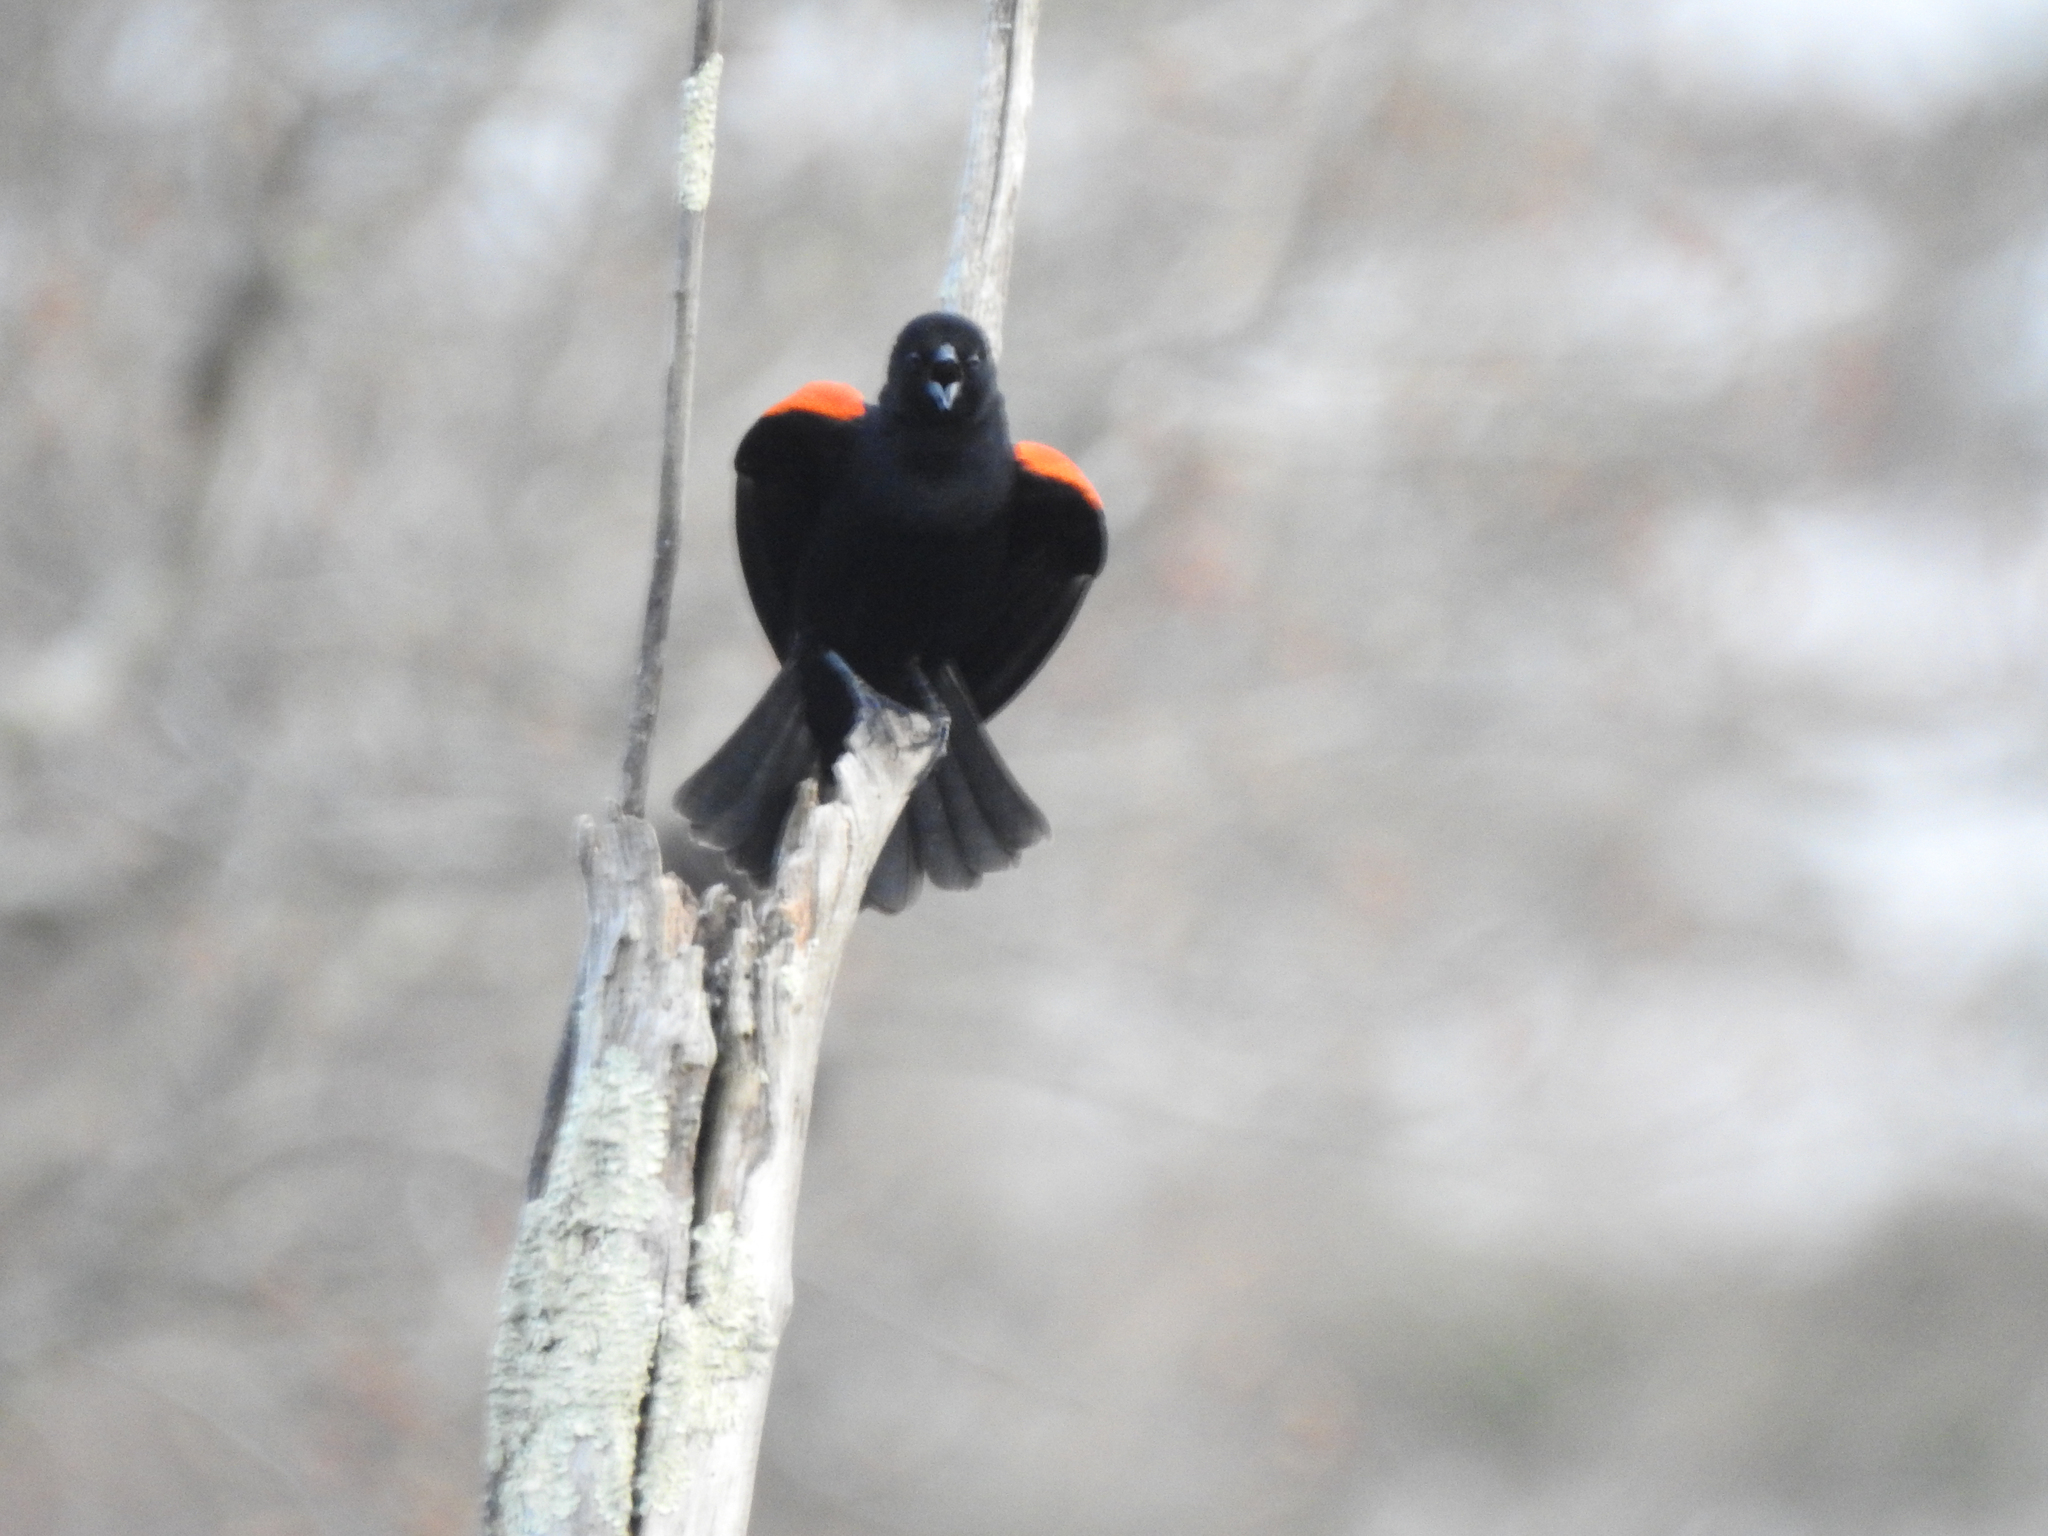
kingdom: Animalia
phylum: Chordata
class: Aves
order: Passeriformes
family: Icteridae
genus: Agelaius
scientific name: Agelaius phoeniceus
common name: Red-winged blackbird
